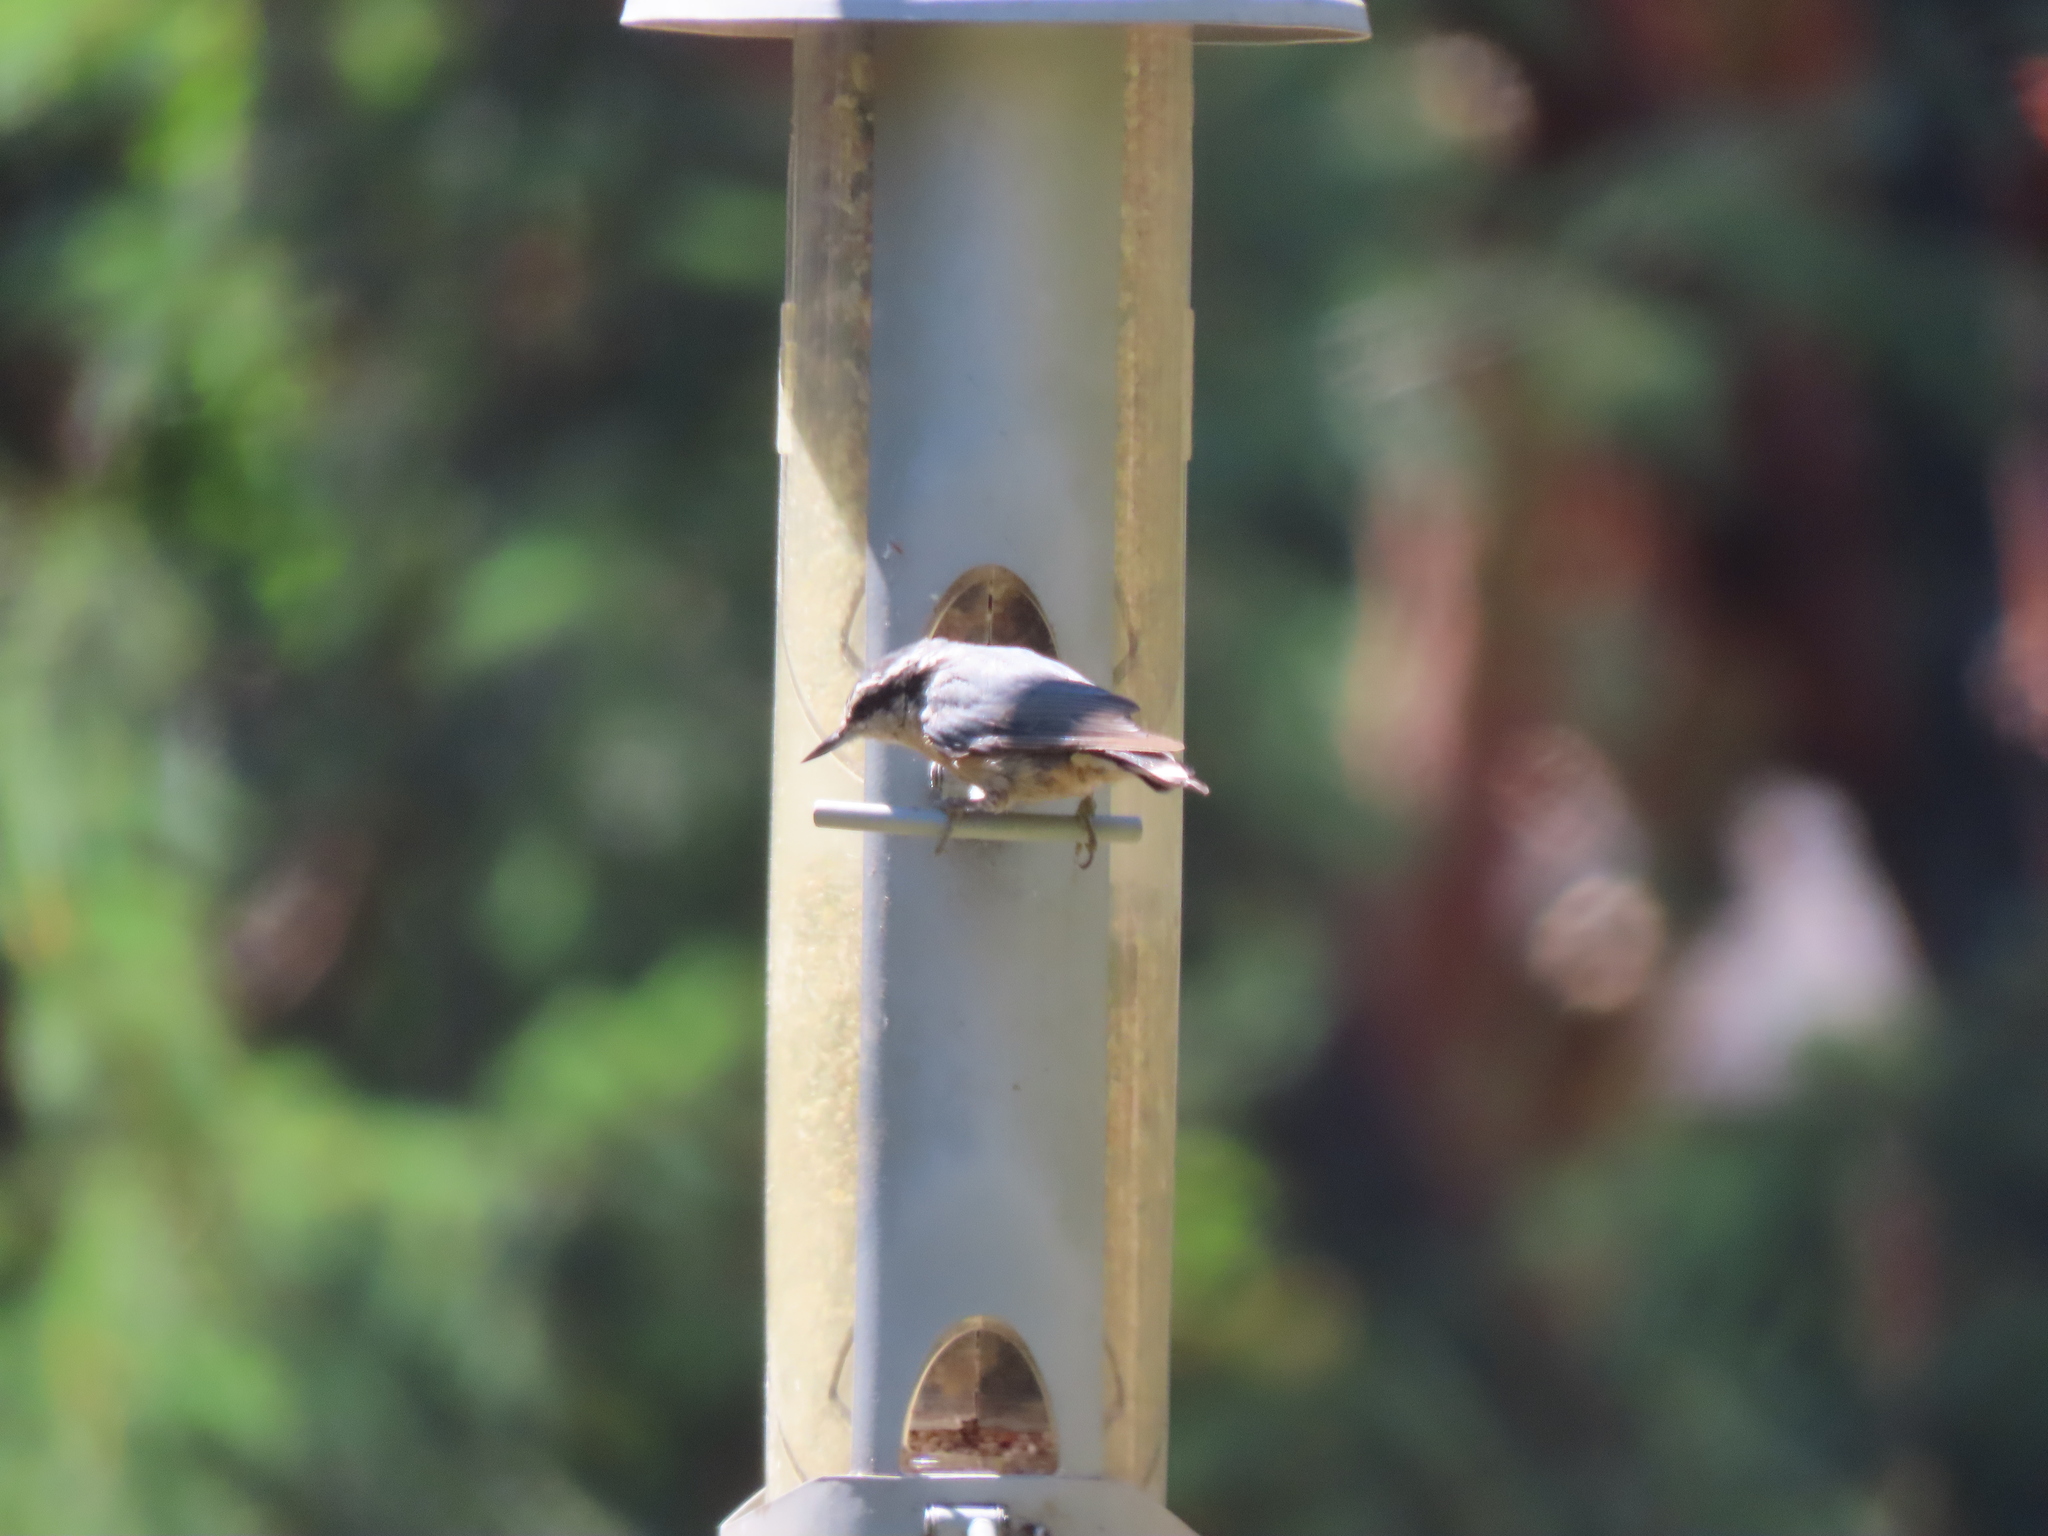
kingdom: Animalia
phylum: Chordata
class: Aves
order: Passeriformes
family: Sittidae
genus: Sitta
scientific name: Sitta canadensis
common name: Red-breasted nuthatch
